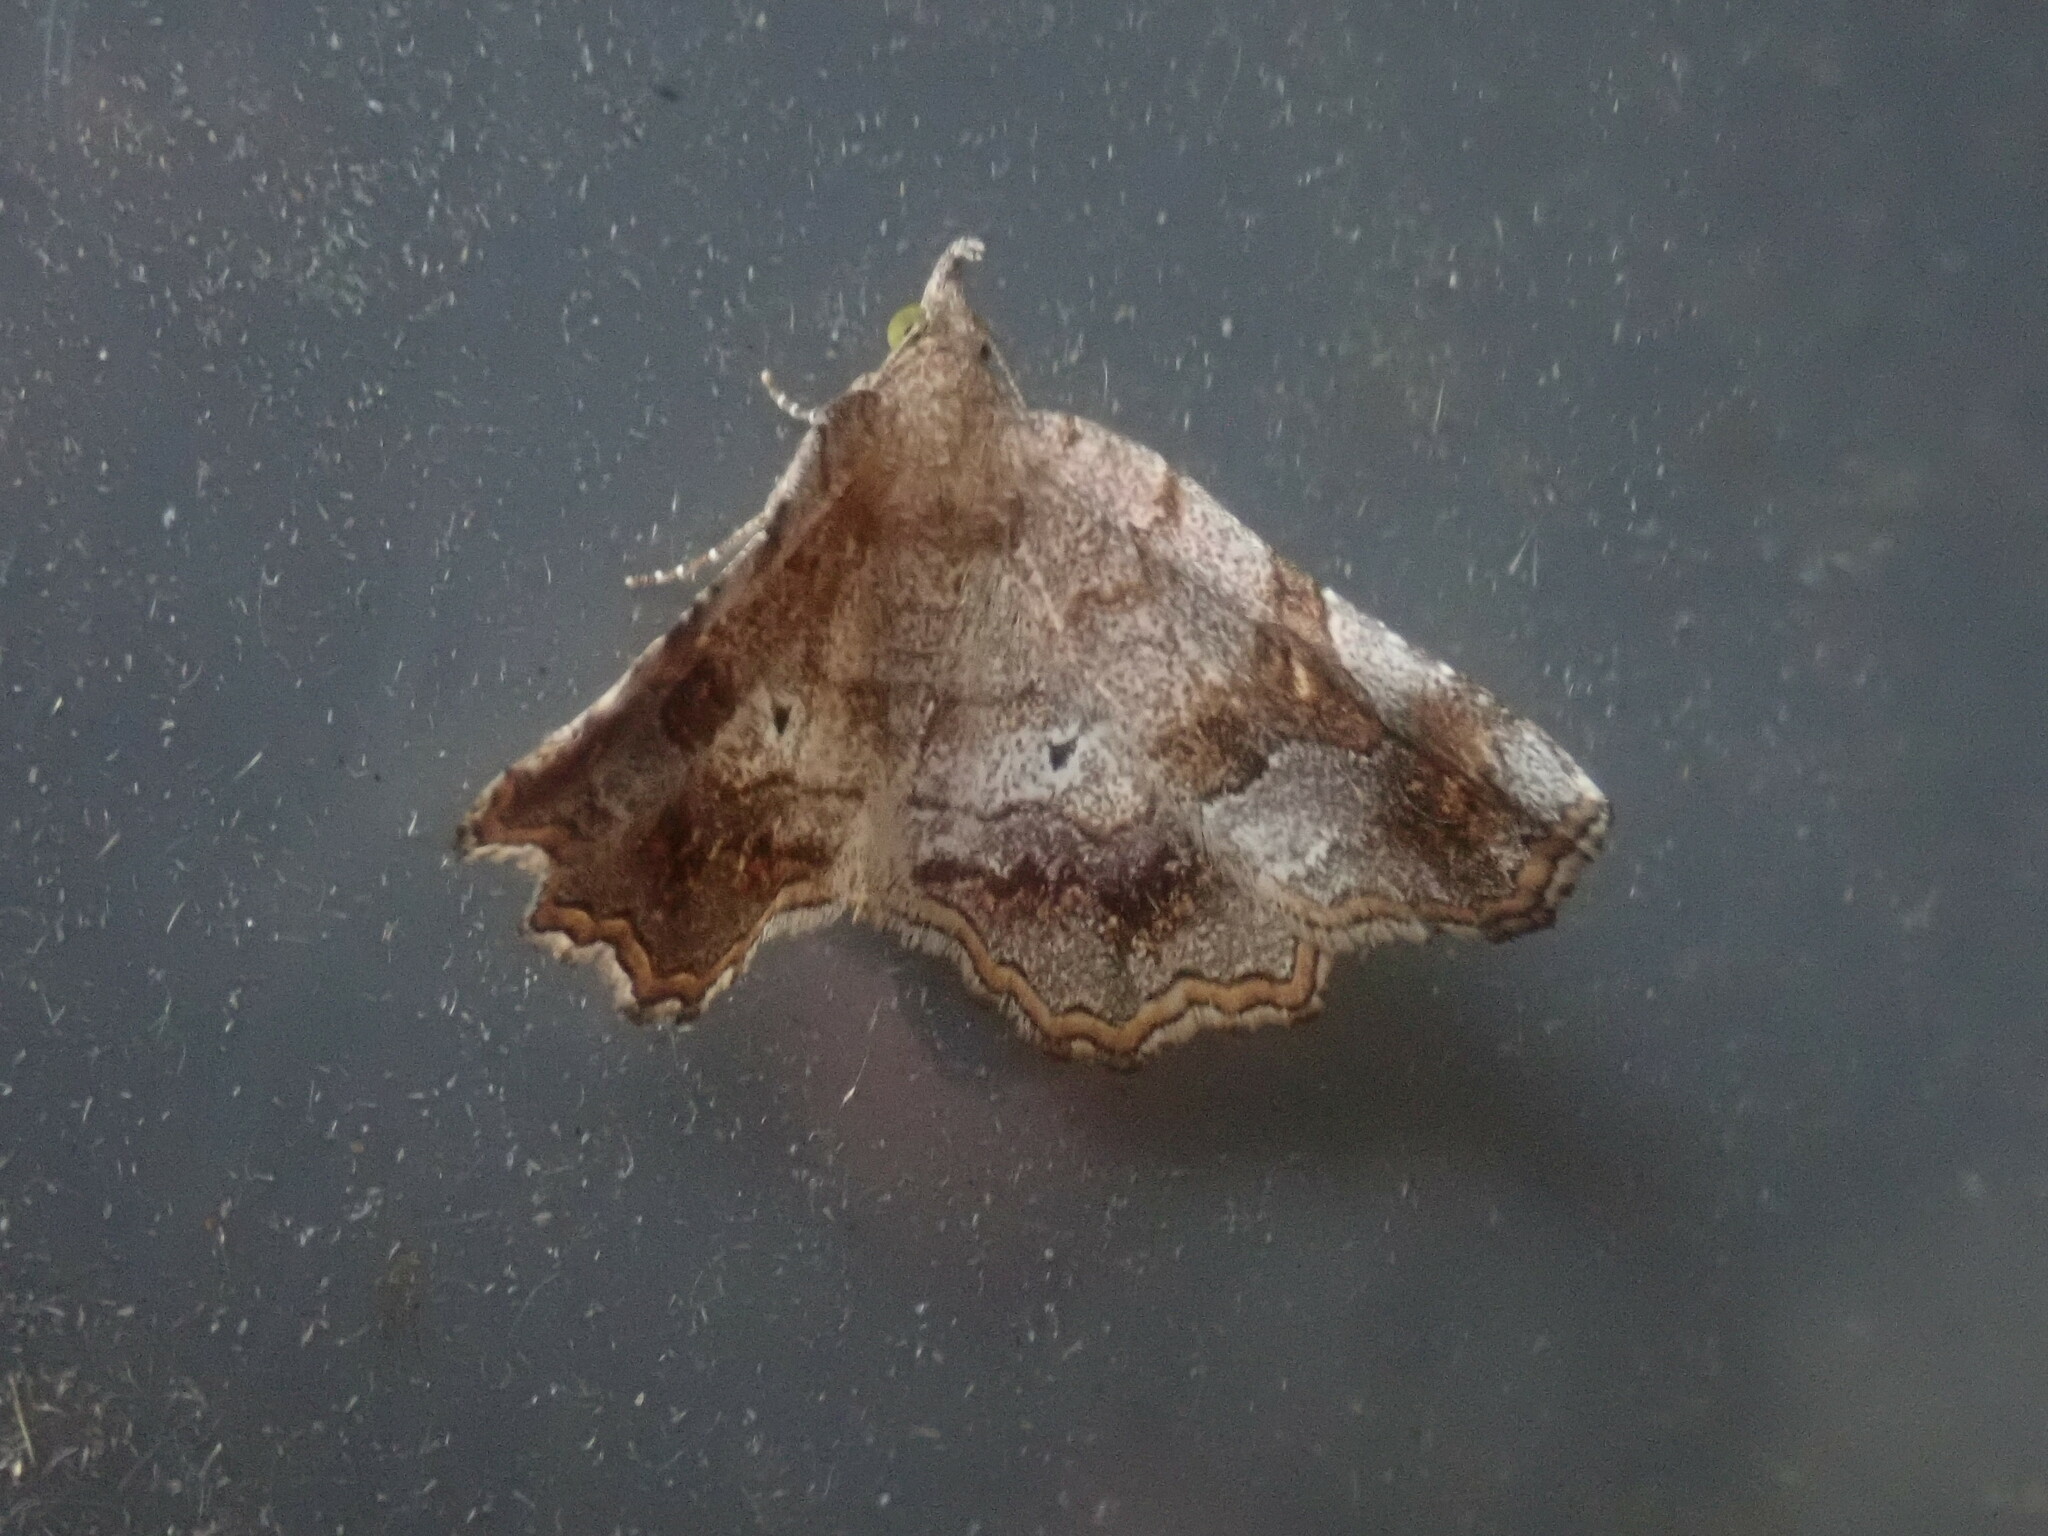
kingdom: Animalia
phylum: Arthropoda
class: Insecta
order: Lepidoptera
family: Erebidae
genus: Pangrapta
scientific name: Pangrapta decoralis
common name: Decorated owlet
